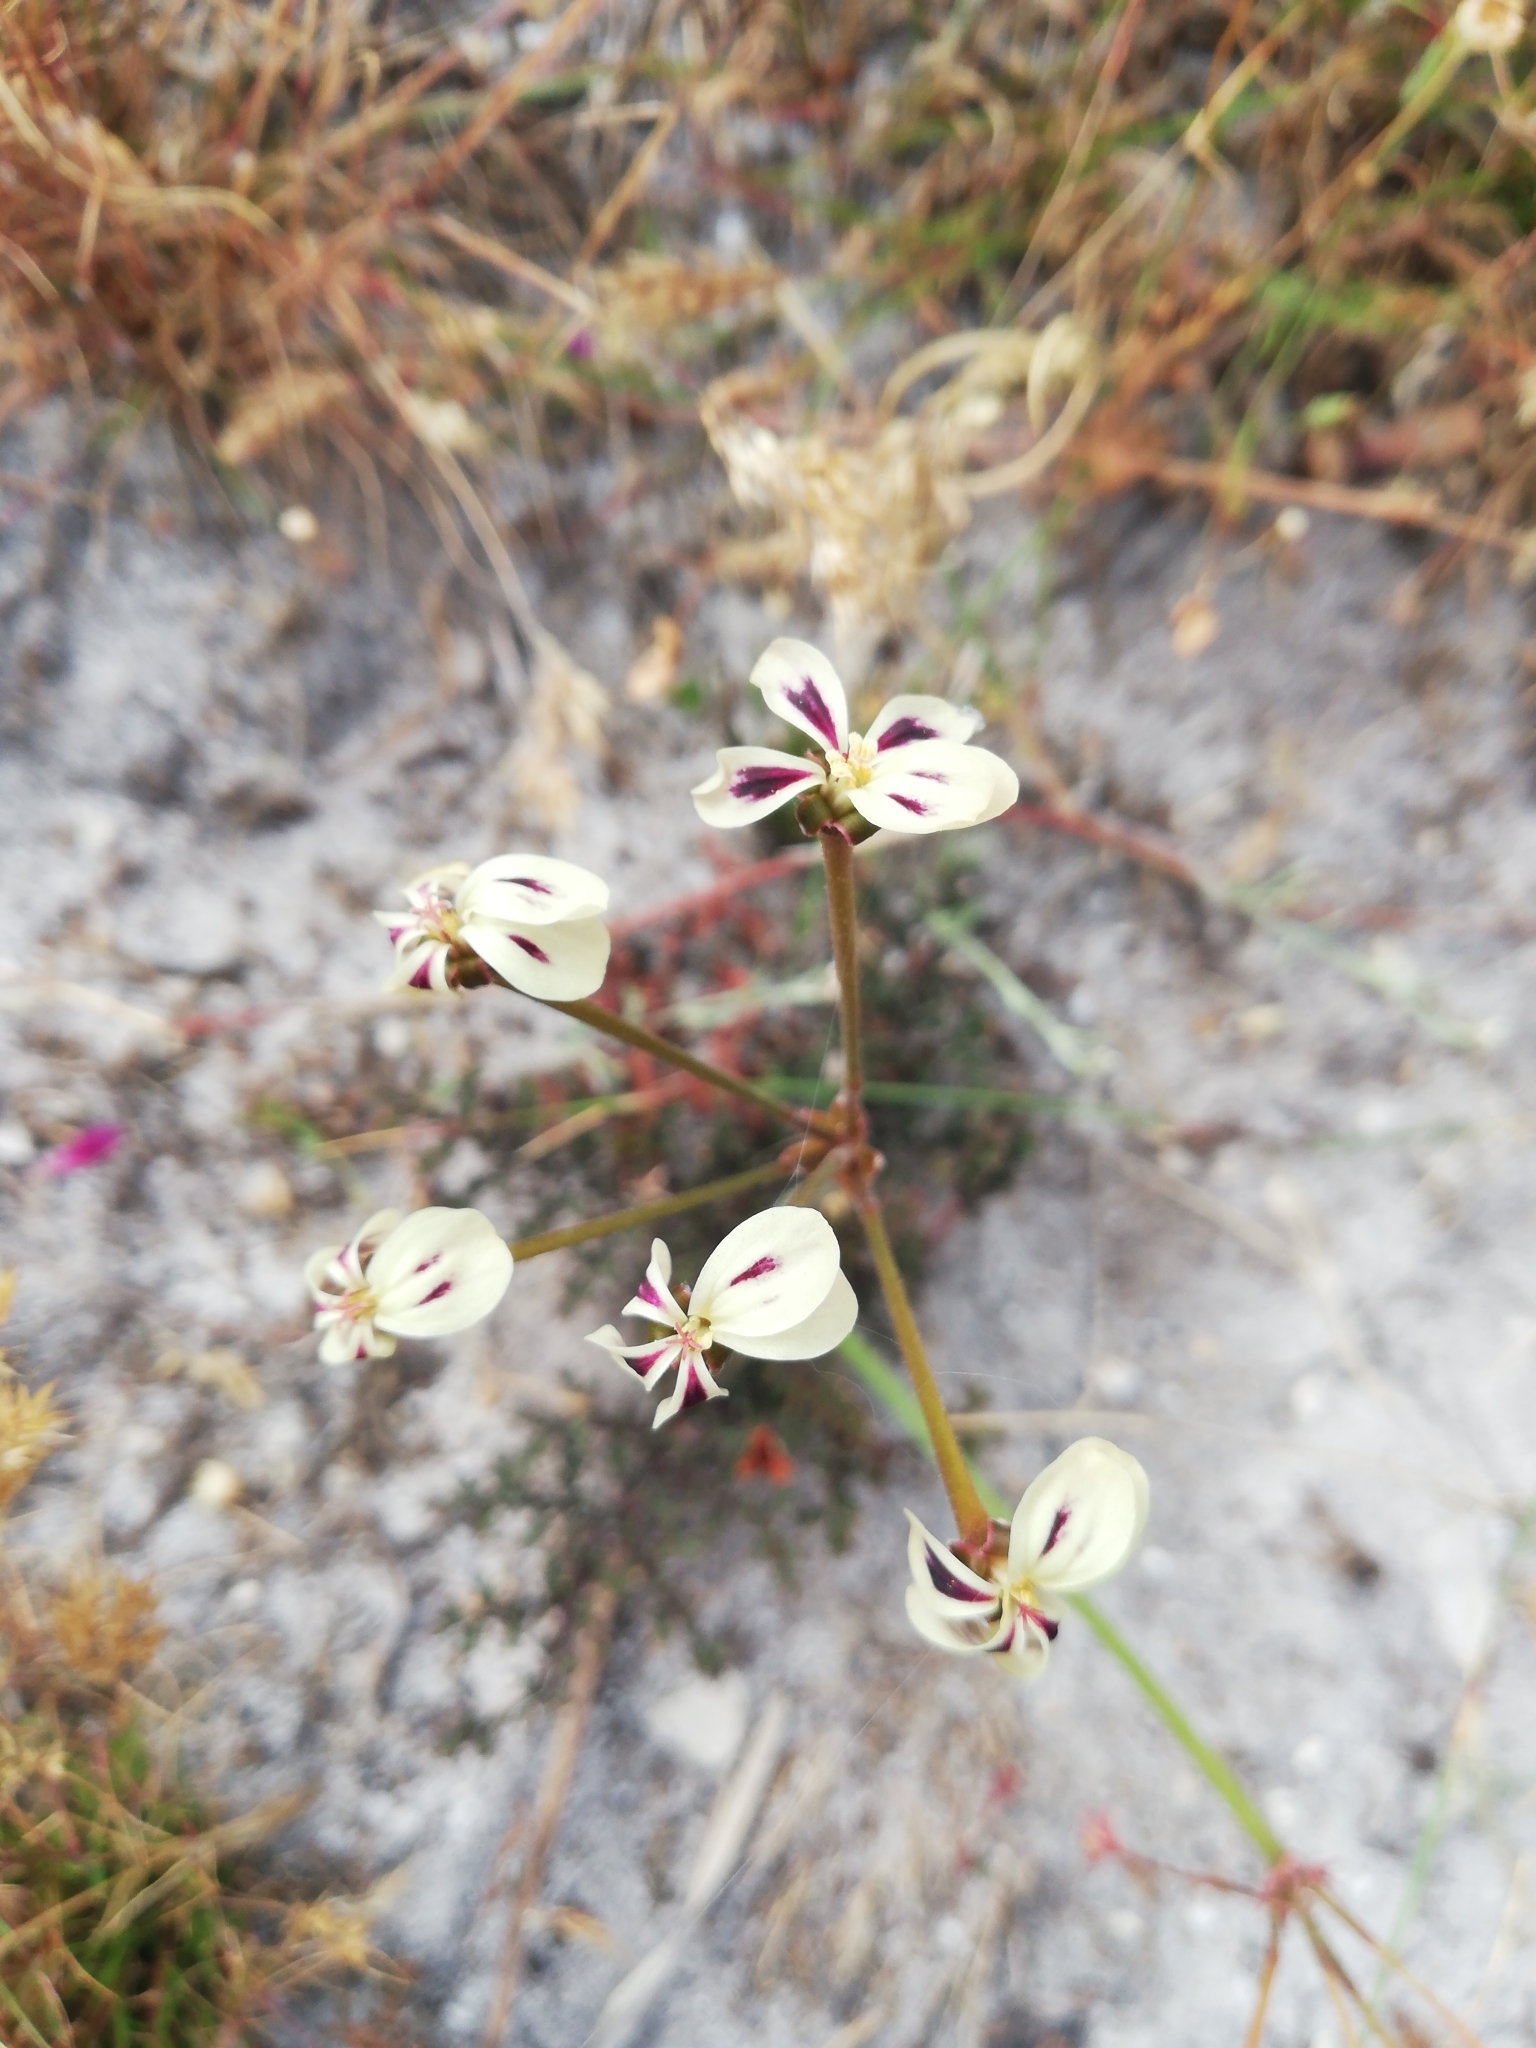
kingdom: Plantae
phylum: Tracheophyta
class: Magnoliopsida
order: Geraniales
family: Geraniaceae
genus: Pelargonium
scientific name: Pelargonium triste
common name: Night-scent pelargonium
